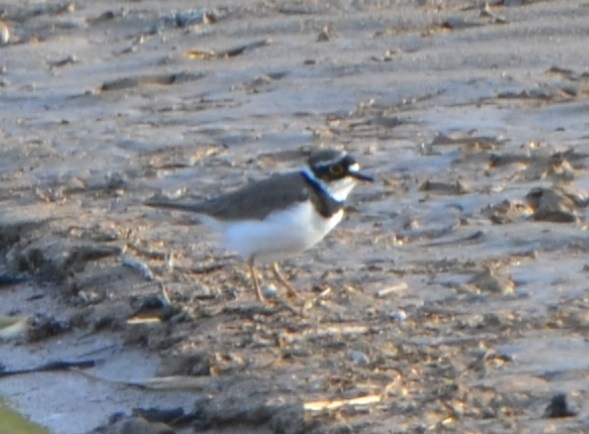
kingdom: Animalia
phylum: Chordata
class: Aves
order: Charadriiformes
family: Charadriidae
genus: Charadrius
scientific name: Charadrius dubius
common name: Little ringed plover
